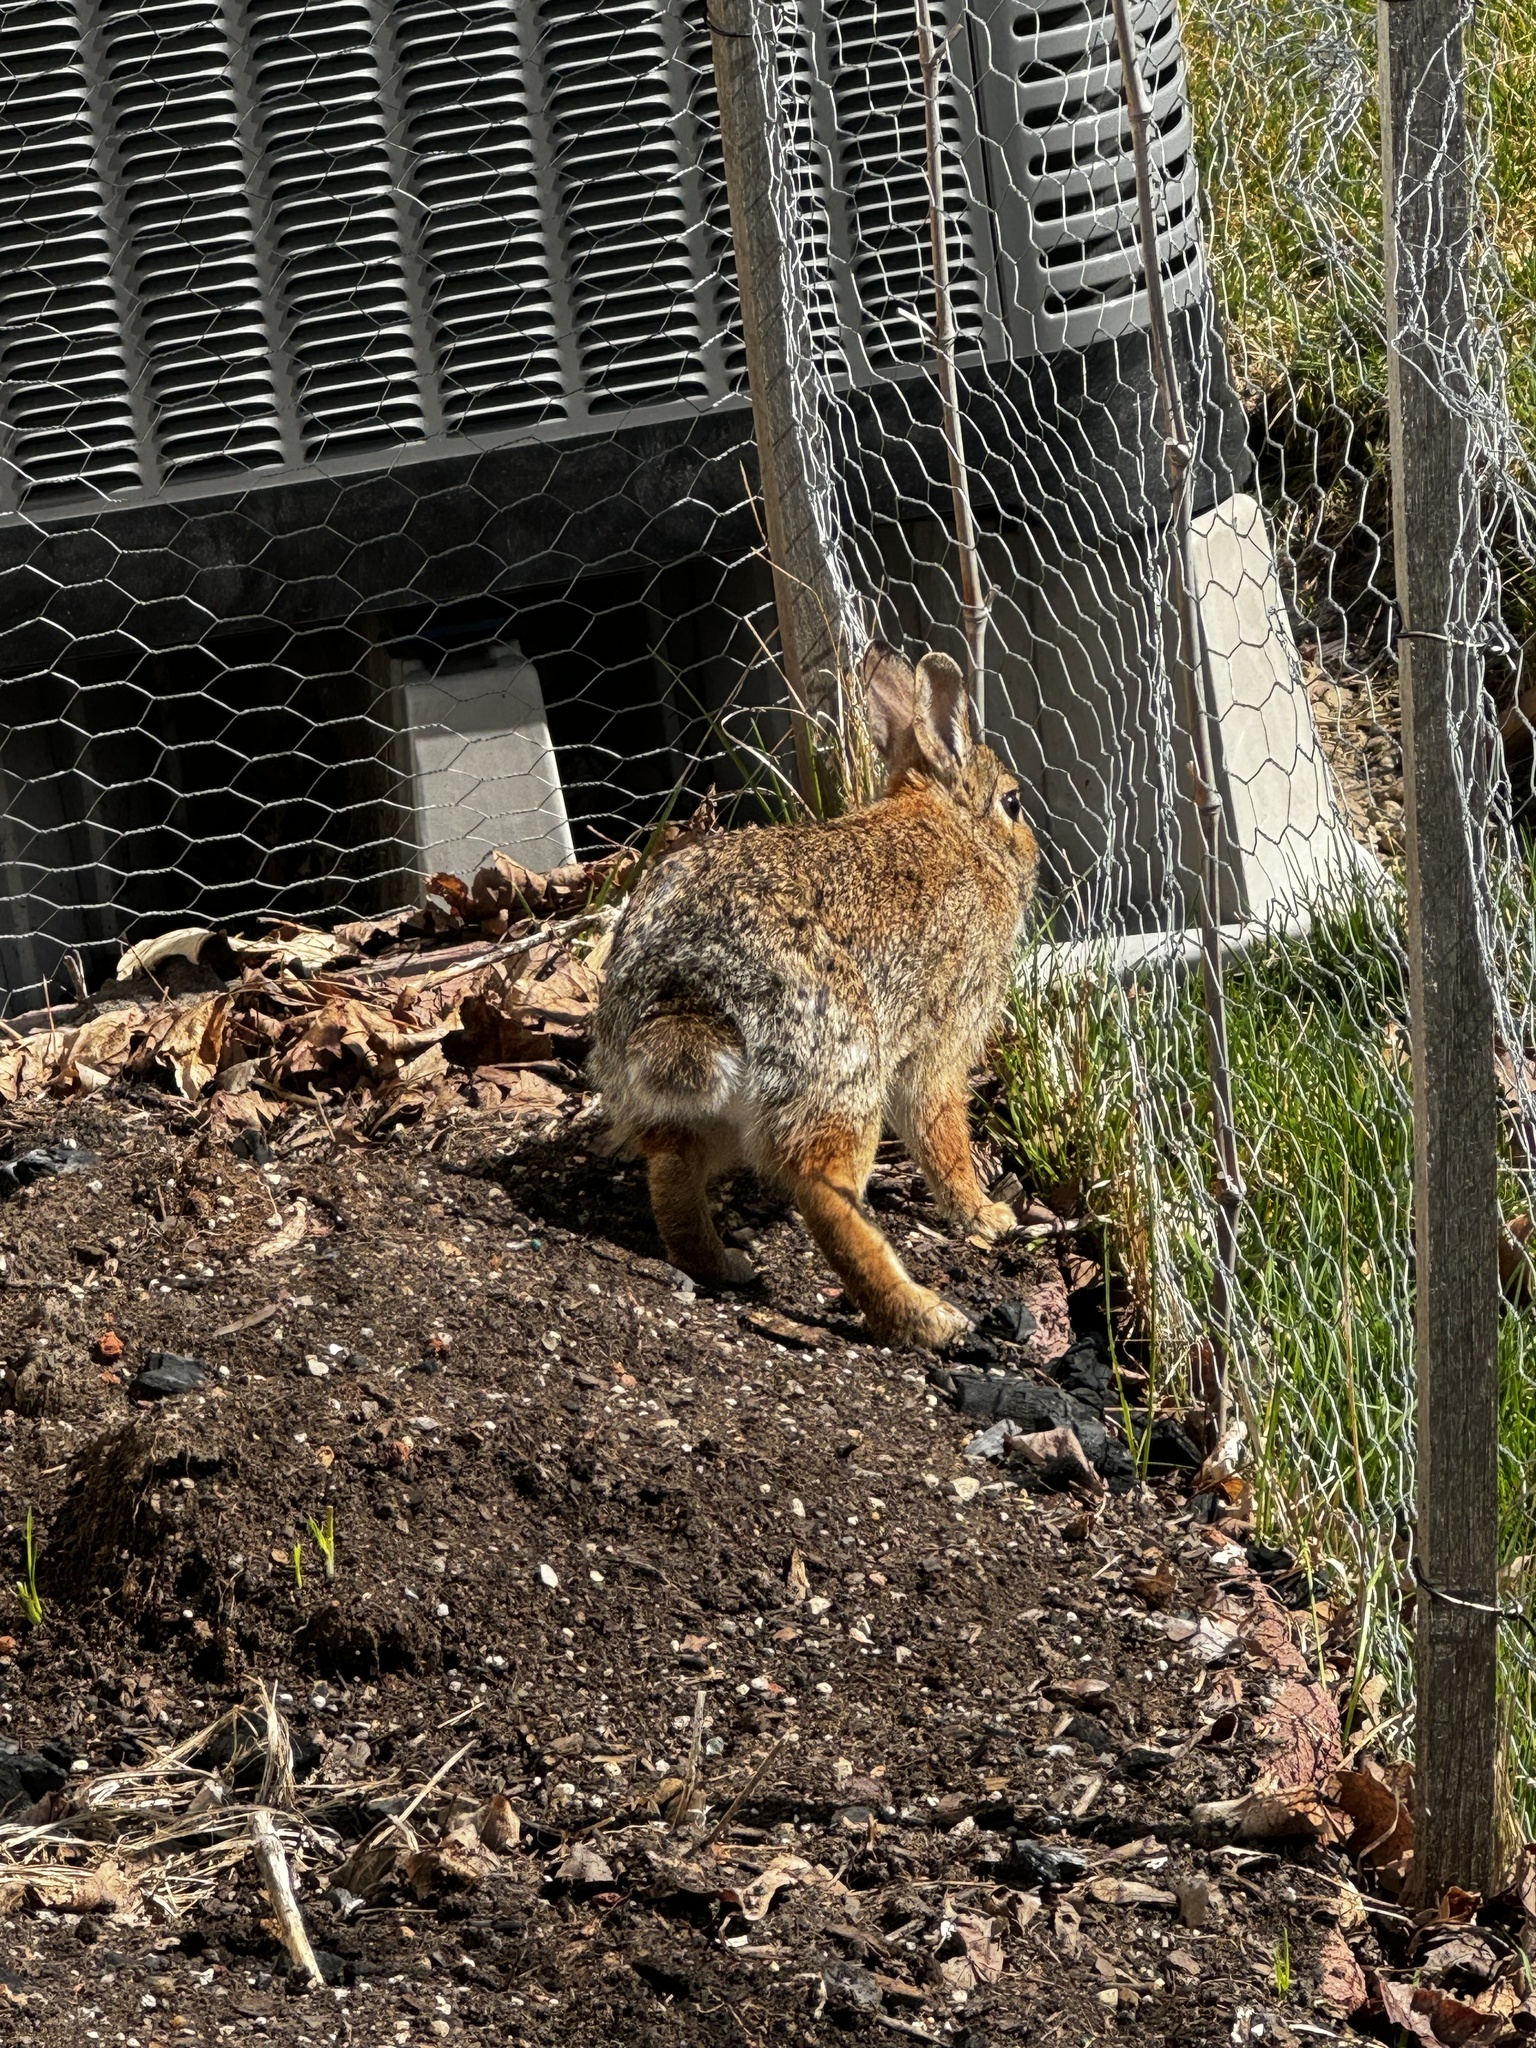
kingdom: Animalia
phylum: Chordata
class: Mammalia
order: Lagomorpha
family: Leporidae
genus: Sylvilagus
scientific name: Sylvilagus floridanus
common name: Eastern cottontail
